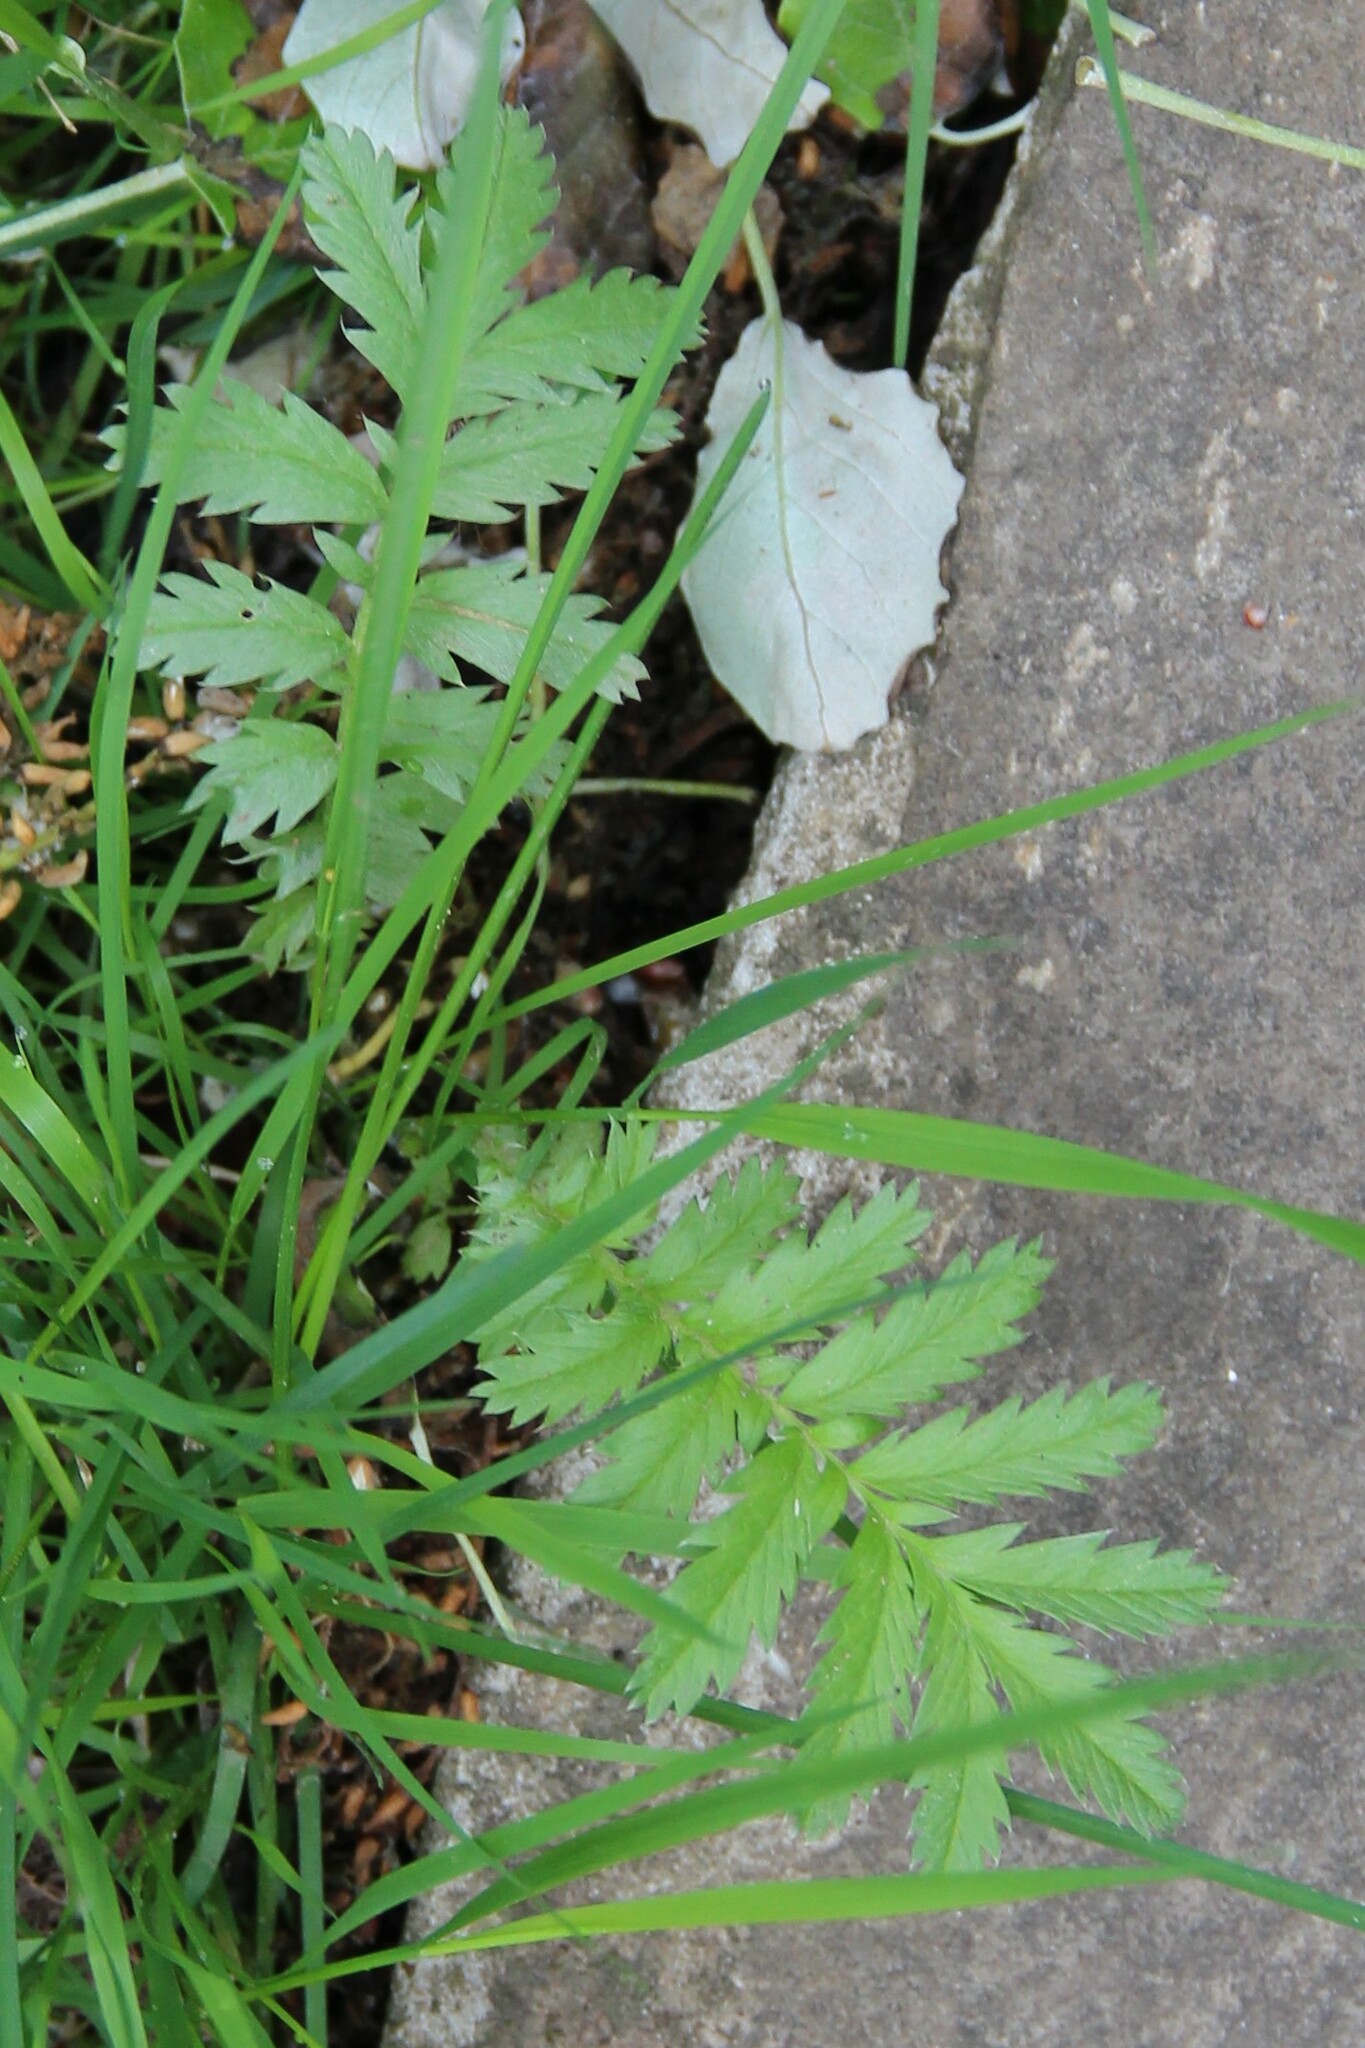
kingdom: Plantae
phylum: Tracheophyta
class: Magnoliopsida
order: Rosales
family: Rosaceae
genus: Argentina
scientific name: Argentina anserina
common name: Common silverweed
